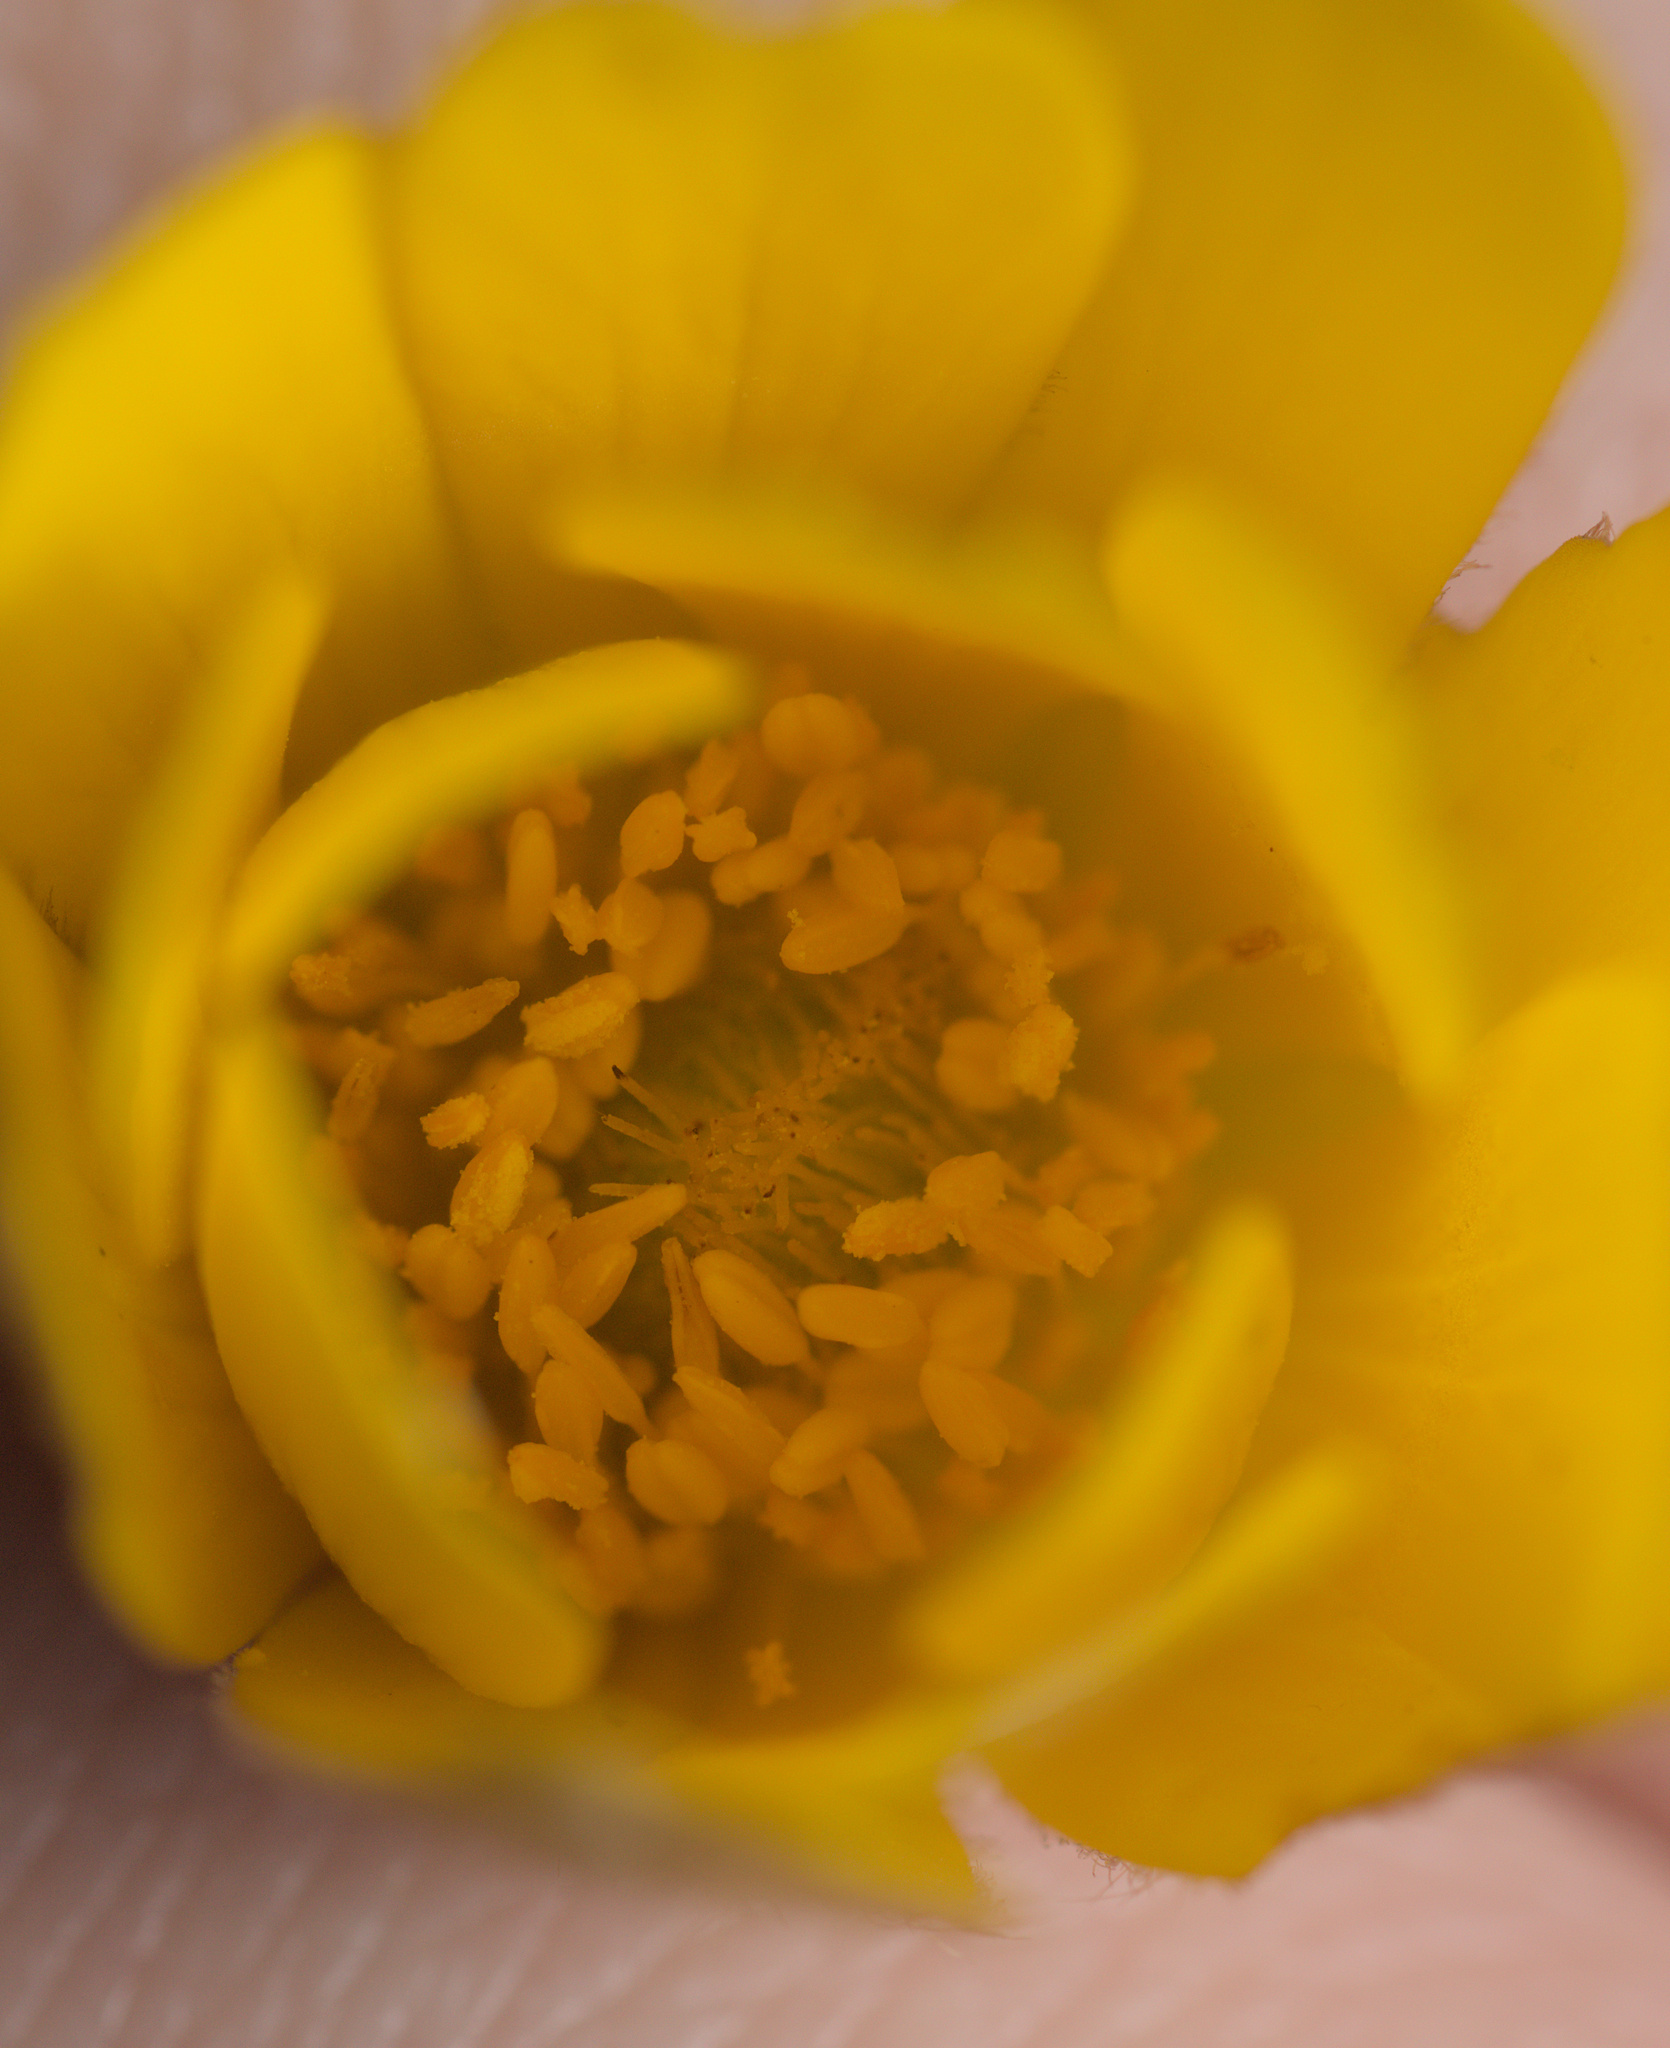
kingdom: Plantae
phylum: Tracheophyta
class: Magnoliopsida
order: Ranunculales
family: Ranunculaceae
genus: Anemone
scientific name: Anemone palmata
